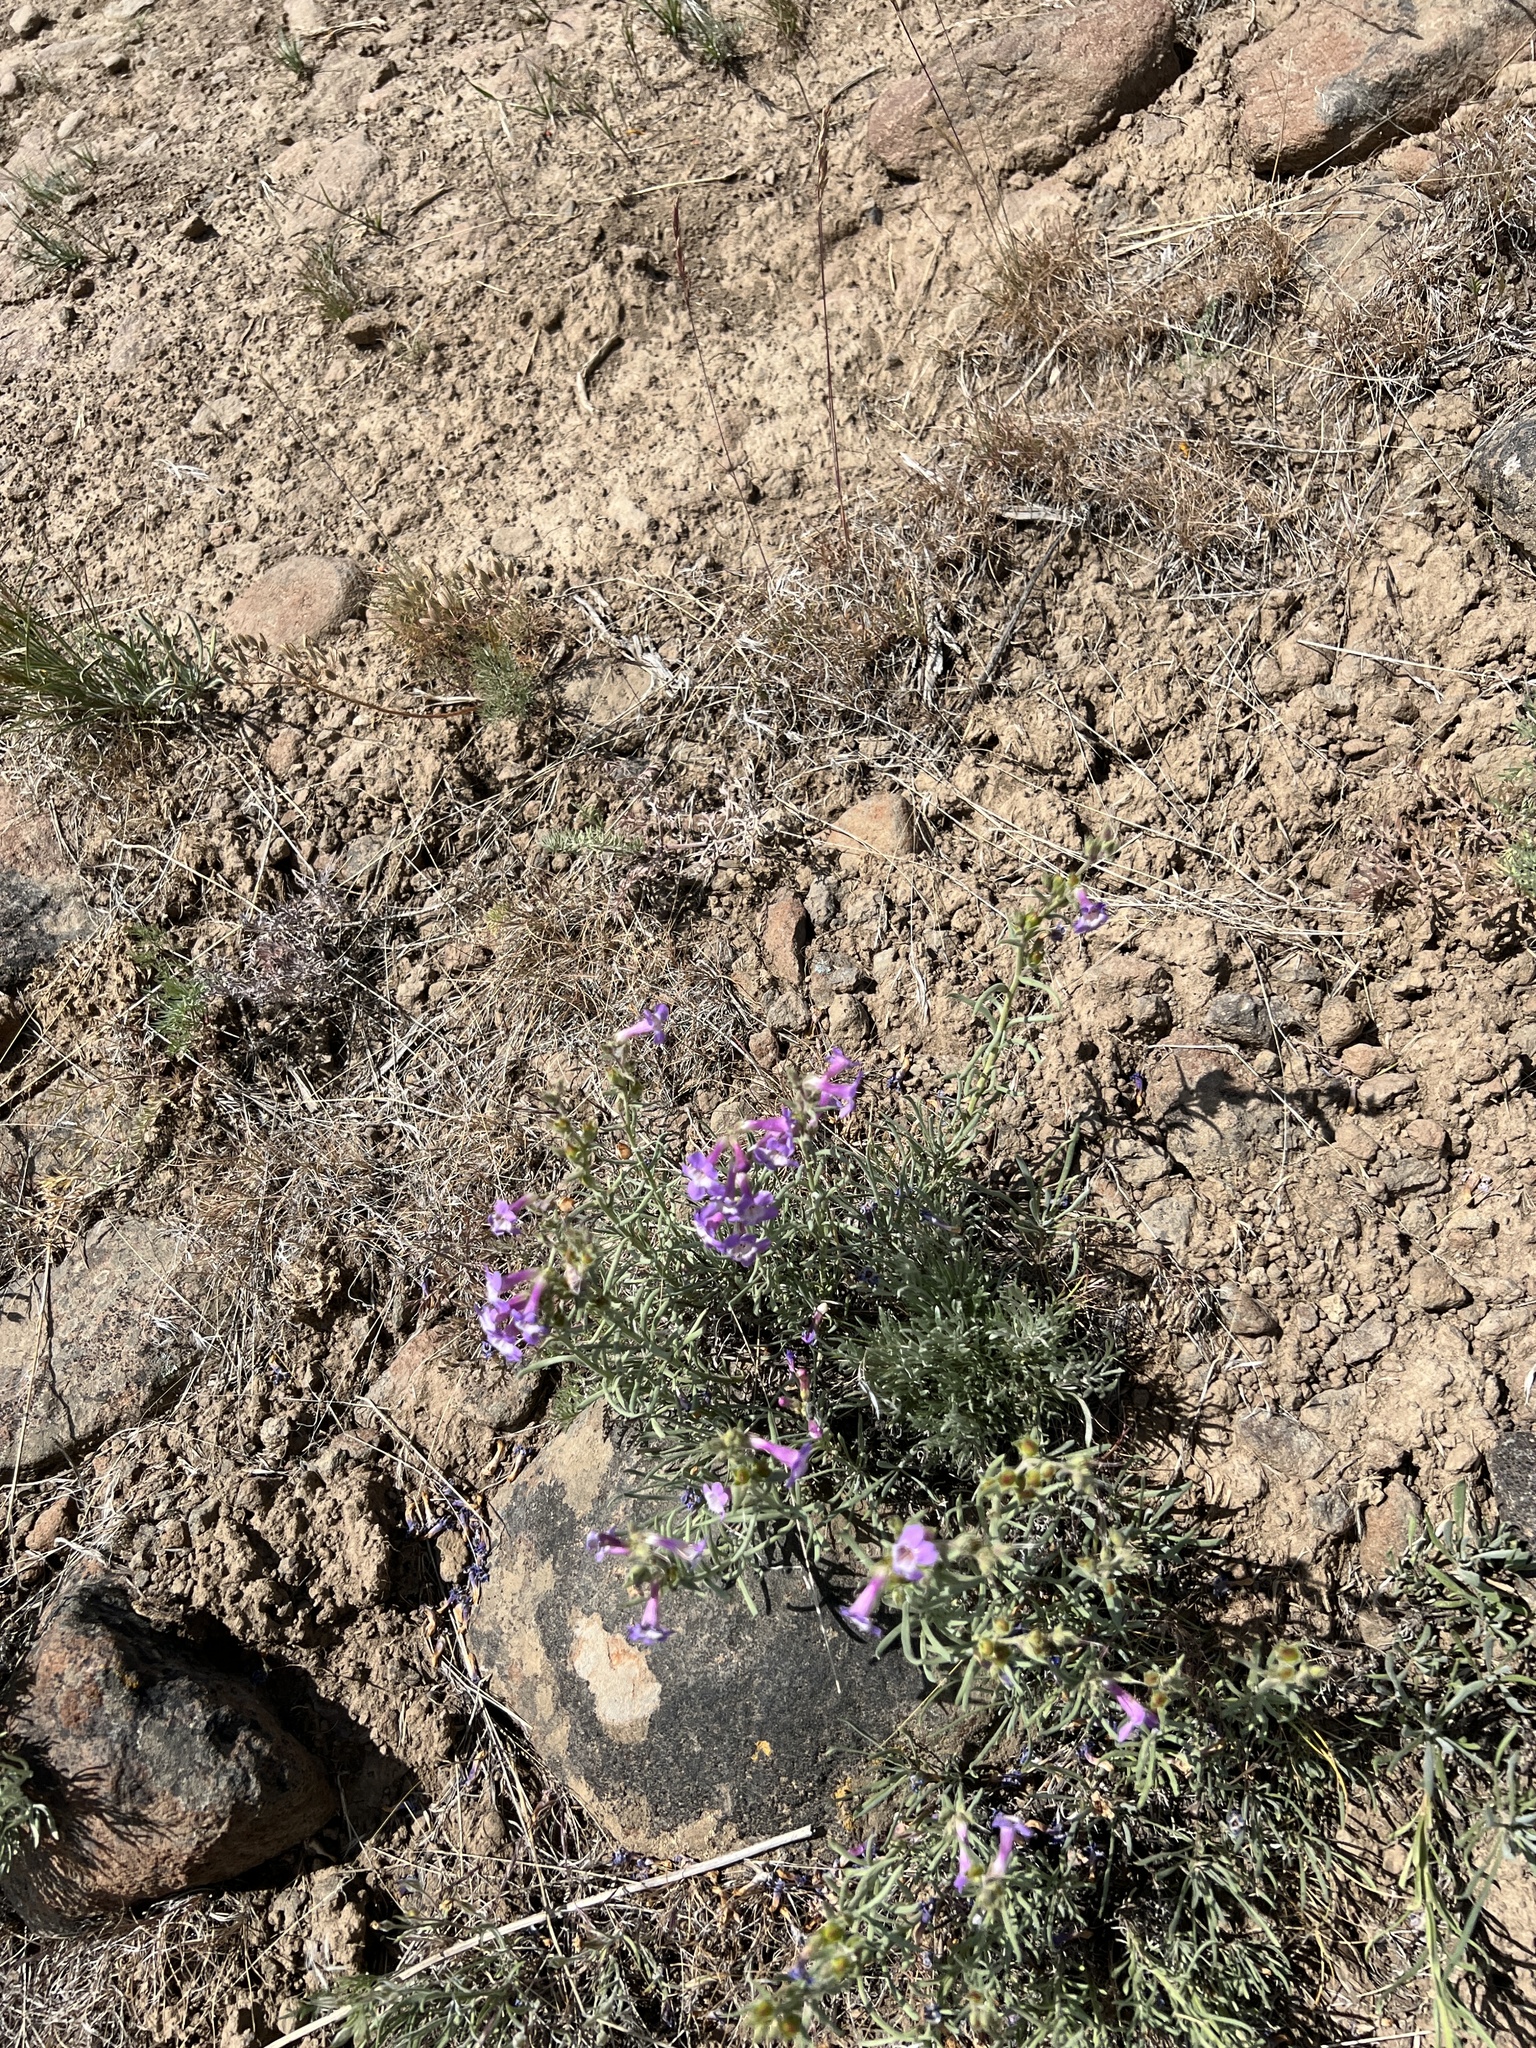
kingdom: Plantae
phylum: Tracheophyta
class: Magnoliopsida
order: Lamiales
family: Plantaginaceae
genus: Penstemon
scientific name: Penstemon gairdneri
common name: Gairdner's penstemon
